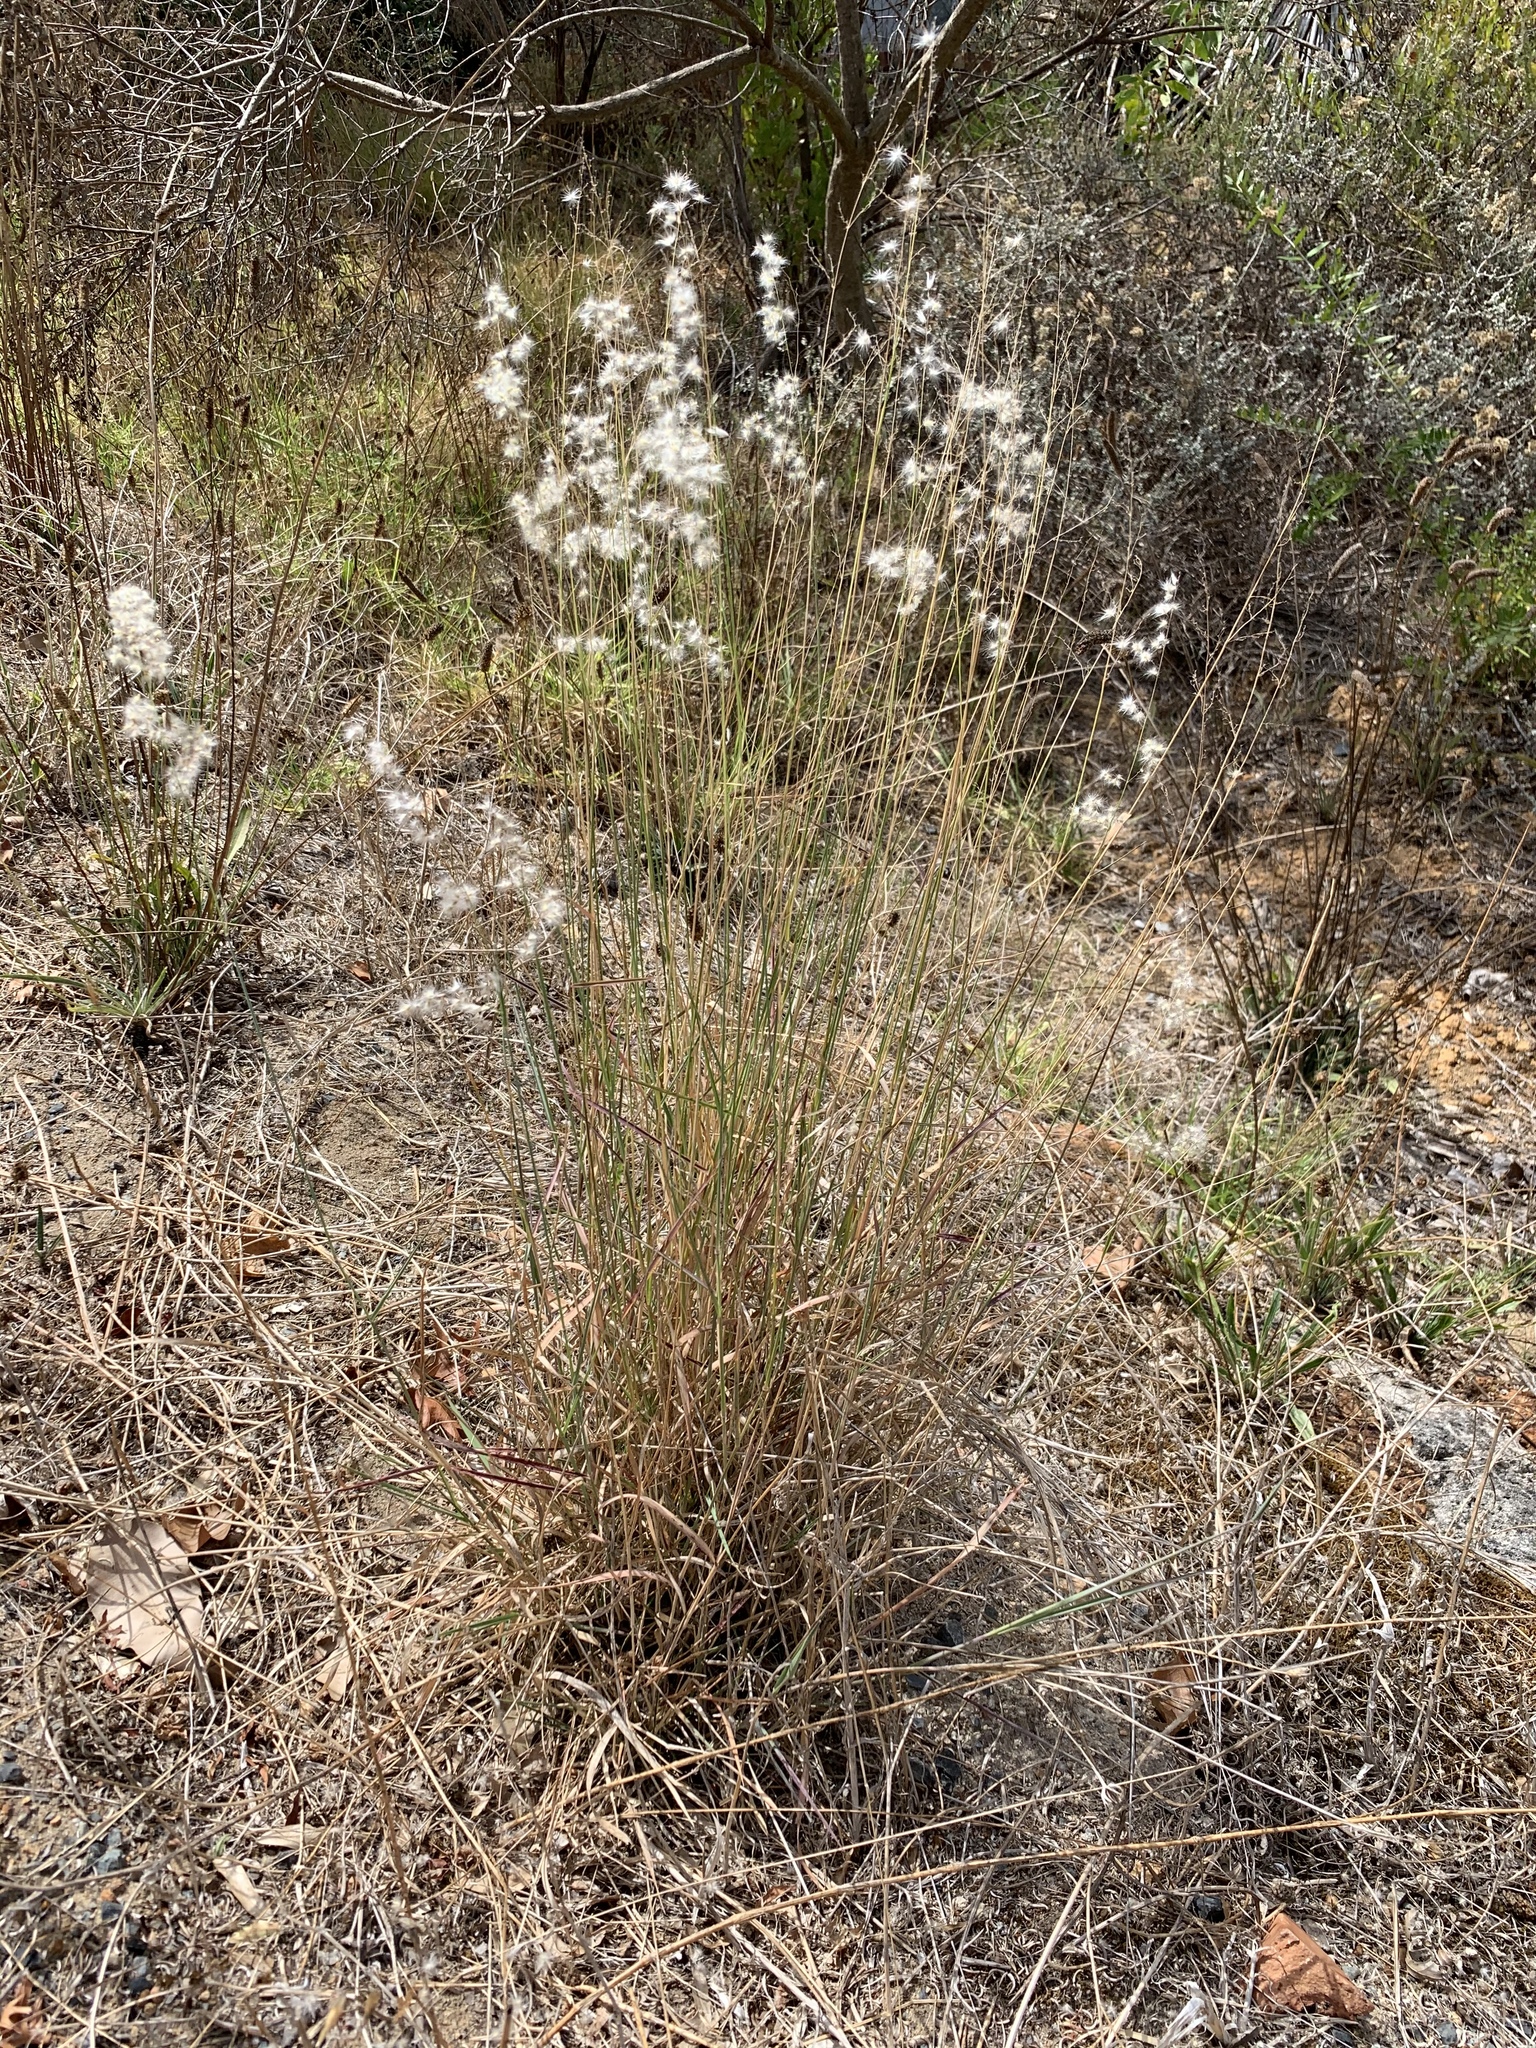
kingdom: Plantae
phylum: Tracheophyta
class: Liliopsida
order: Poales
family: Poaceae
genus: Melinis
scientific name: Melinis repens
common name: Rose natal grass
